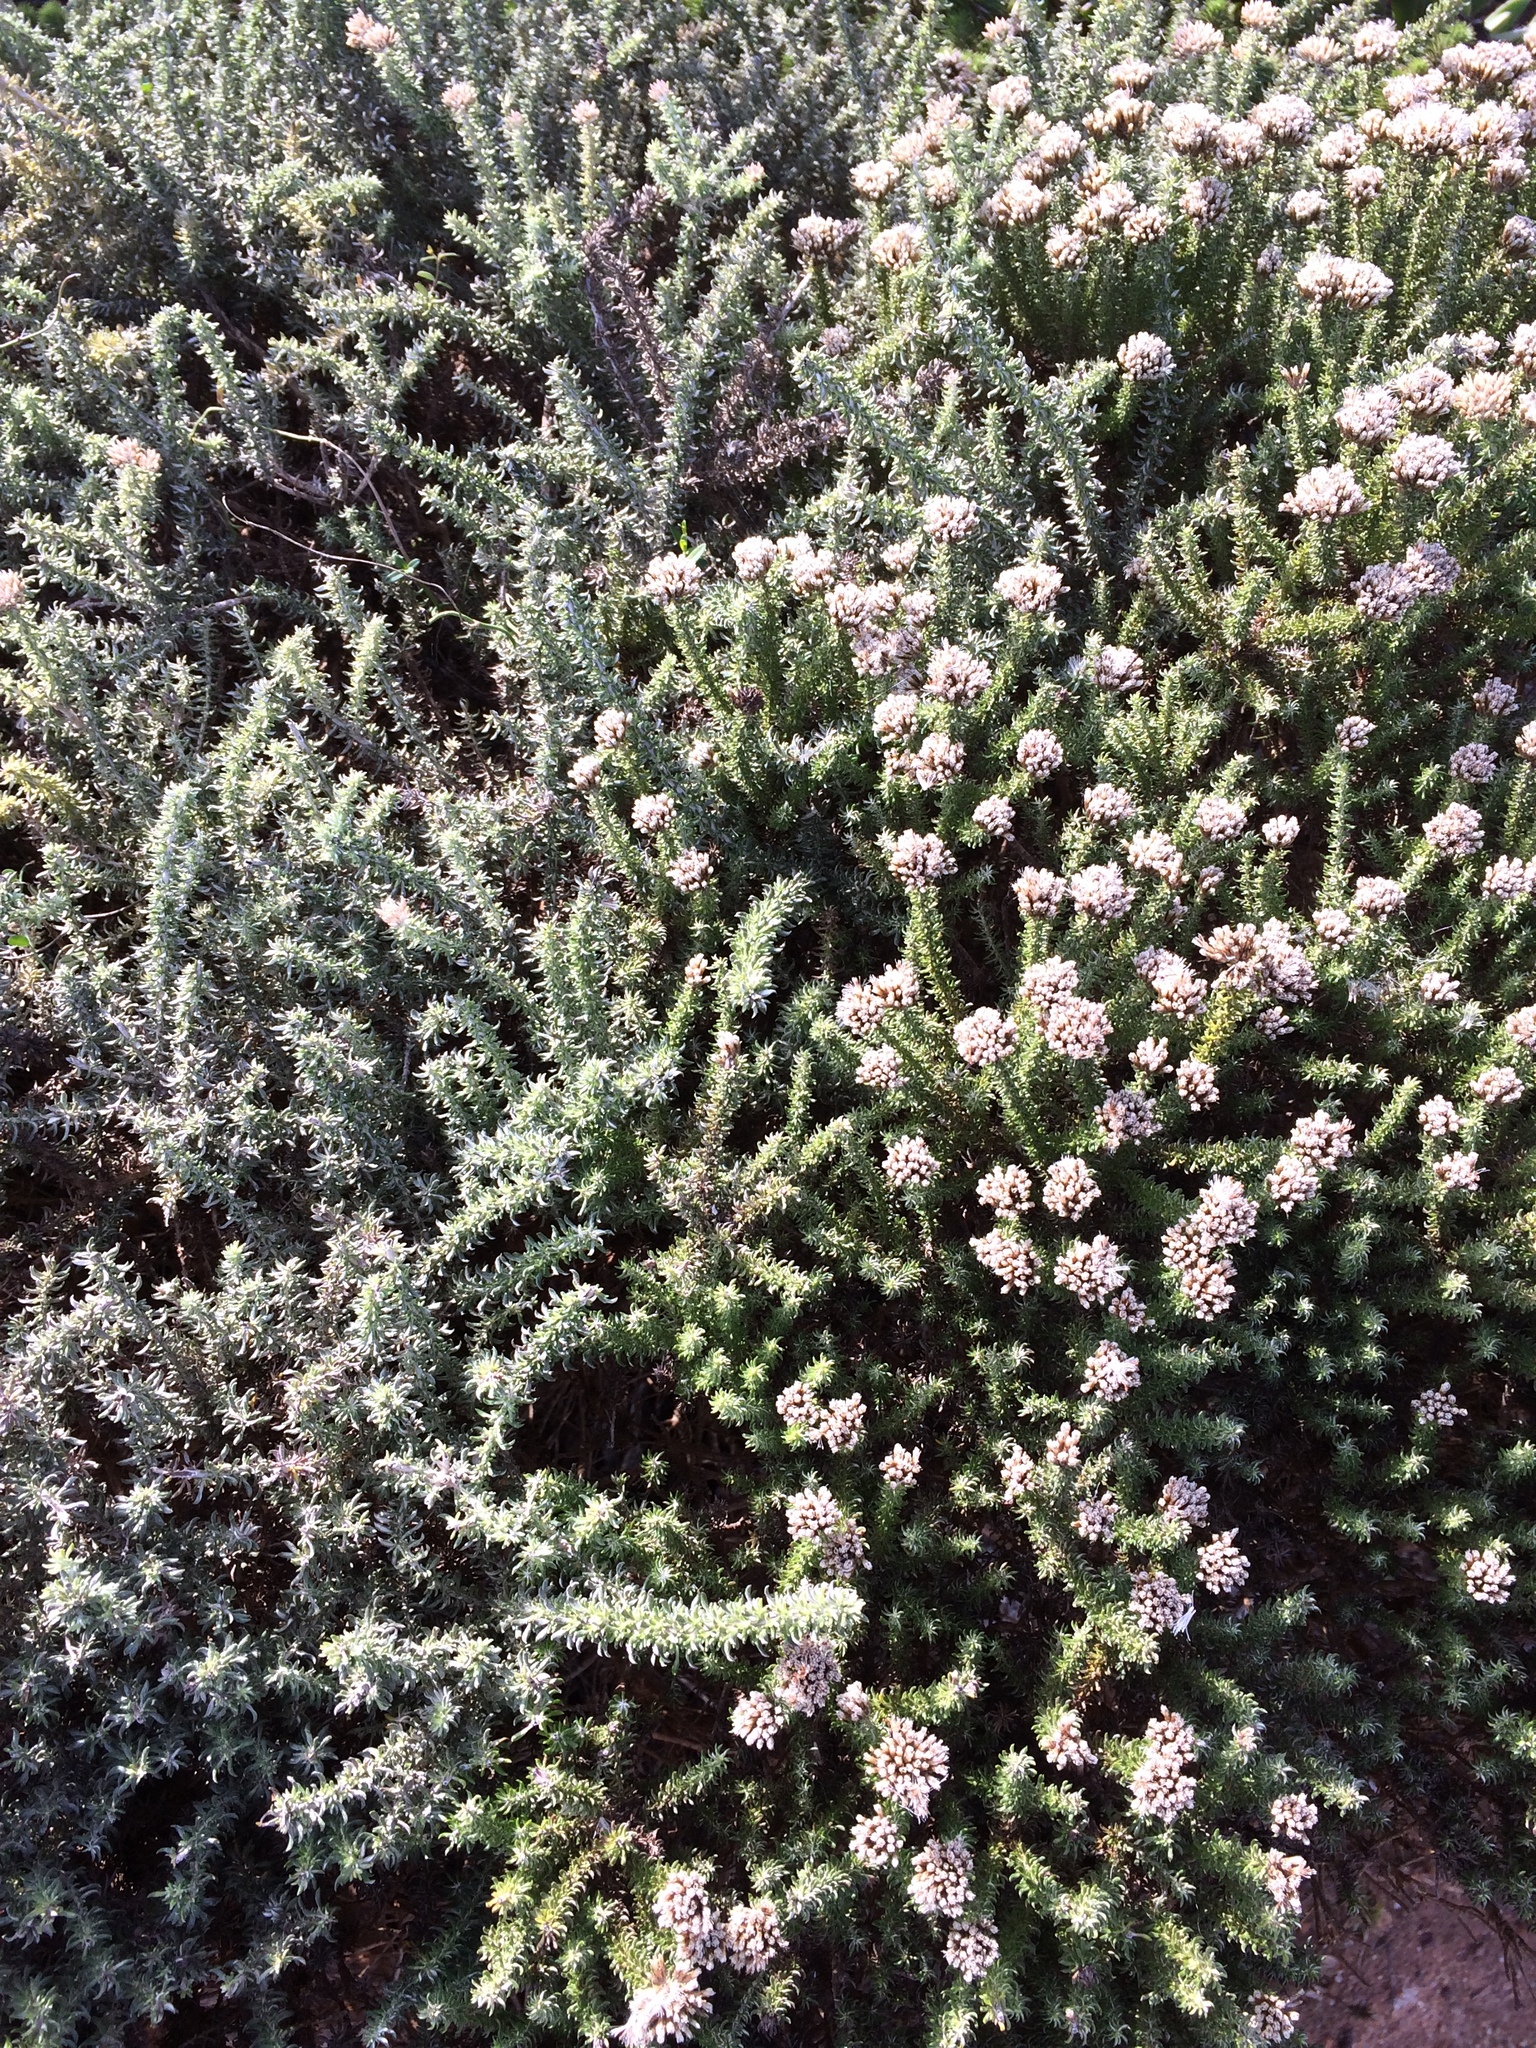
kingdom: Plantae
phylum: Tracheophyta
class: Magnoliopsida
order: Asterales
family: Asteraceae
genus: Metalasia
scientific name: Metalasia muricata
